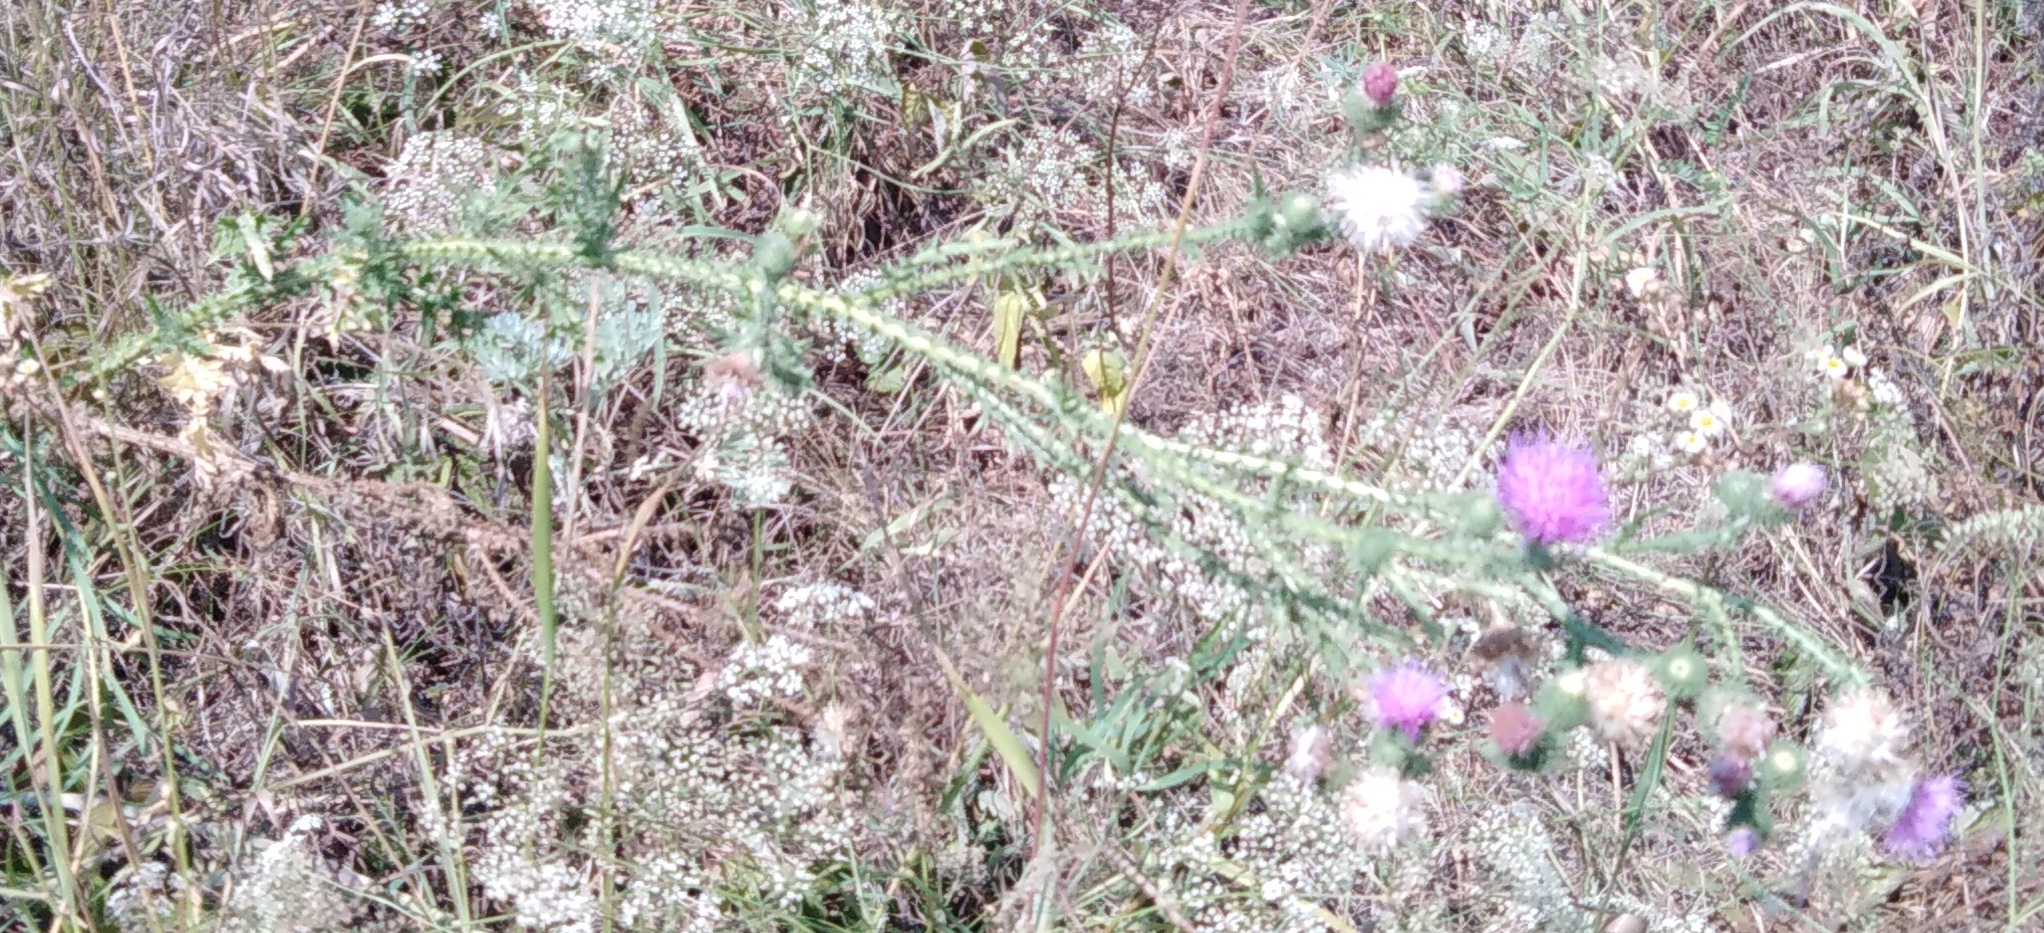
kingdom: Plantae
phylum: Tracheophyta
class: Magnoliopsida
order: Asterales
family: Asteraceae
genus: Carduus
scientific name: Carduus crispus
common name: Welted thistle
